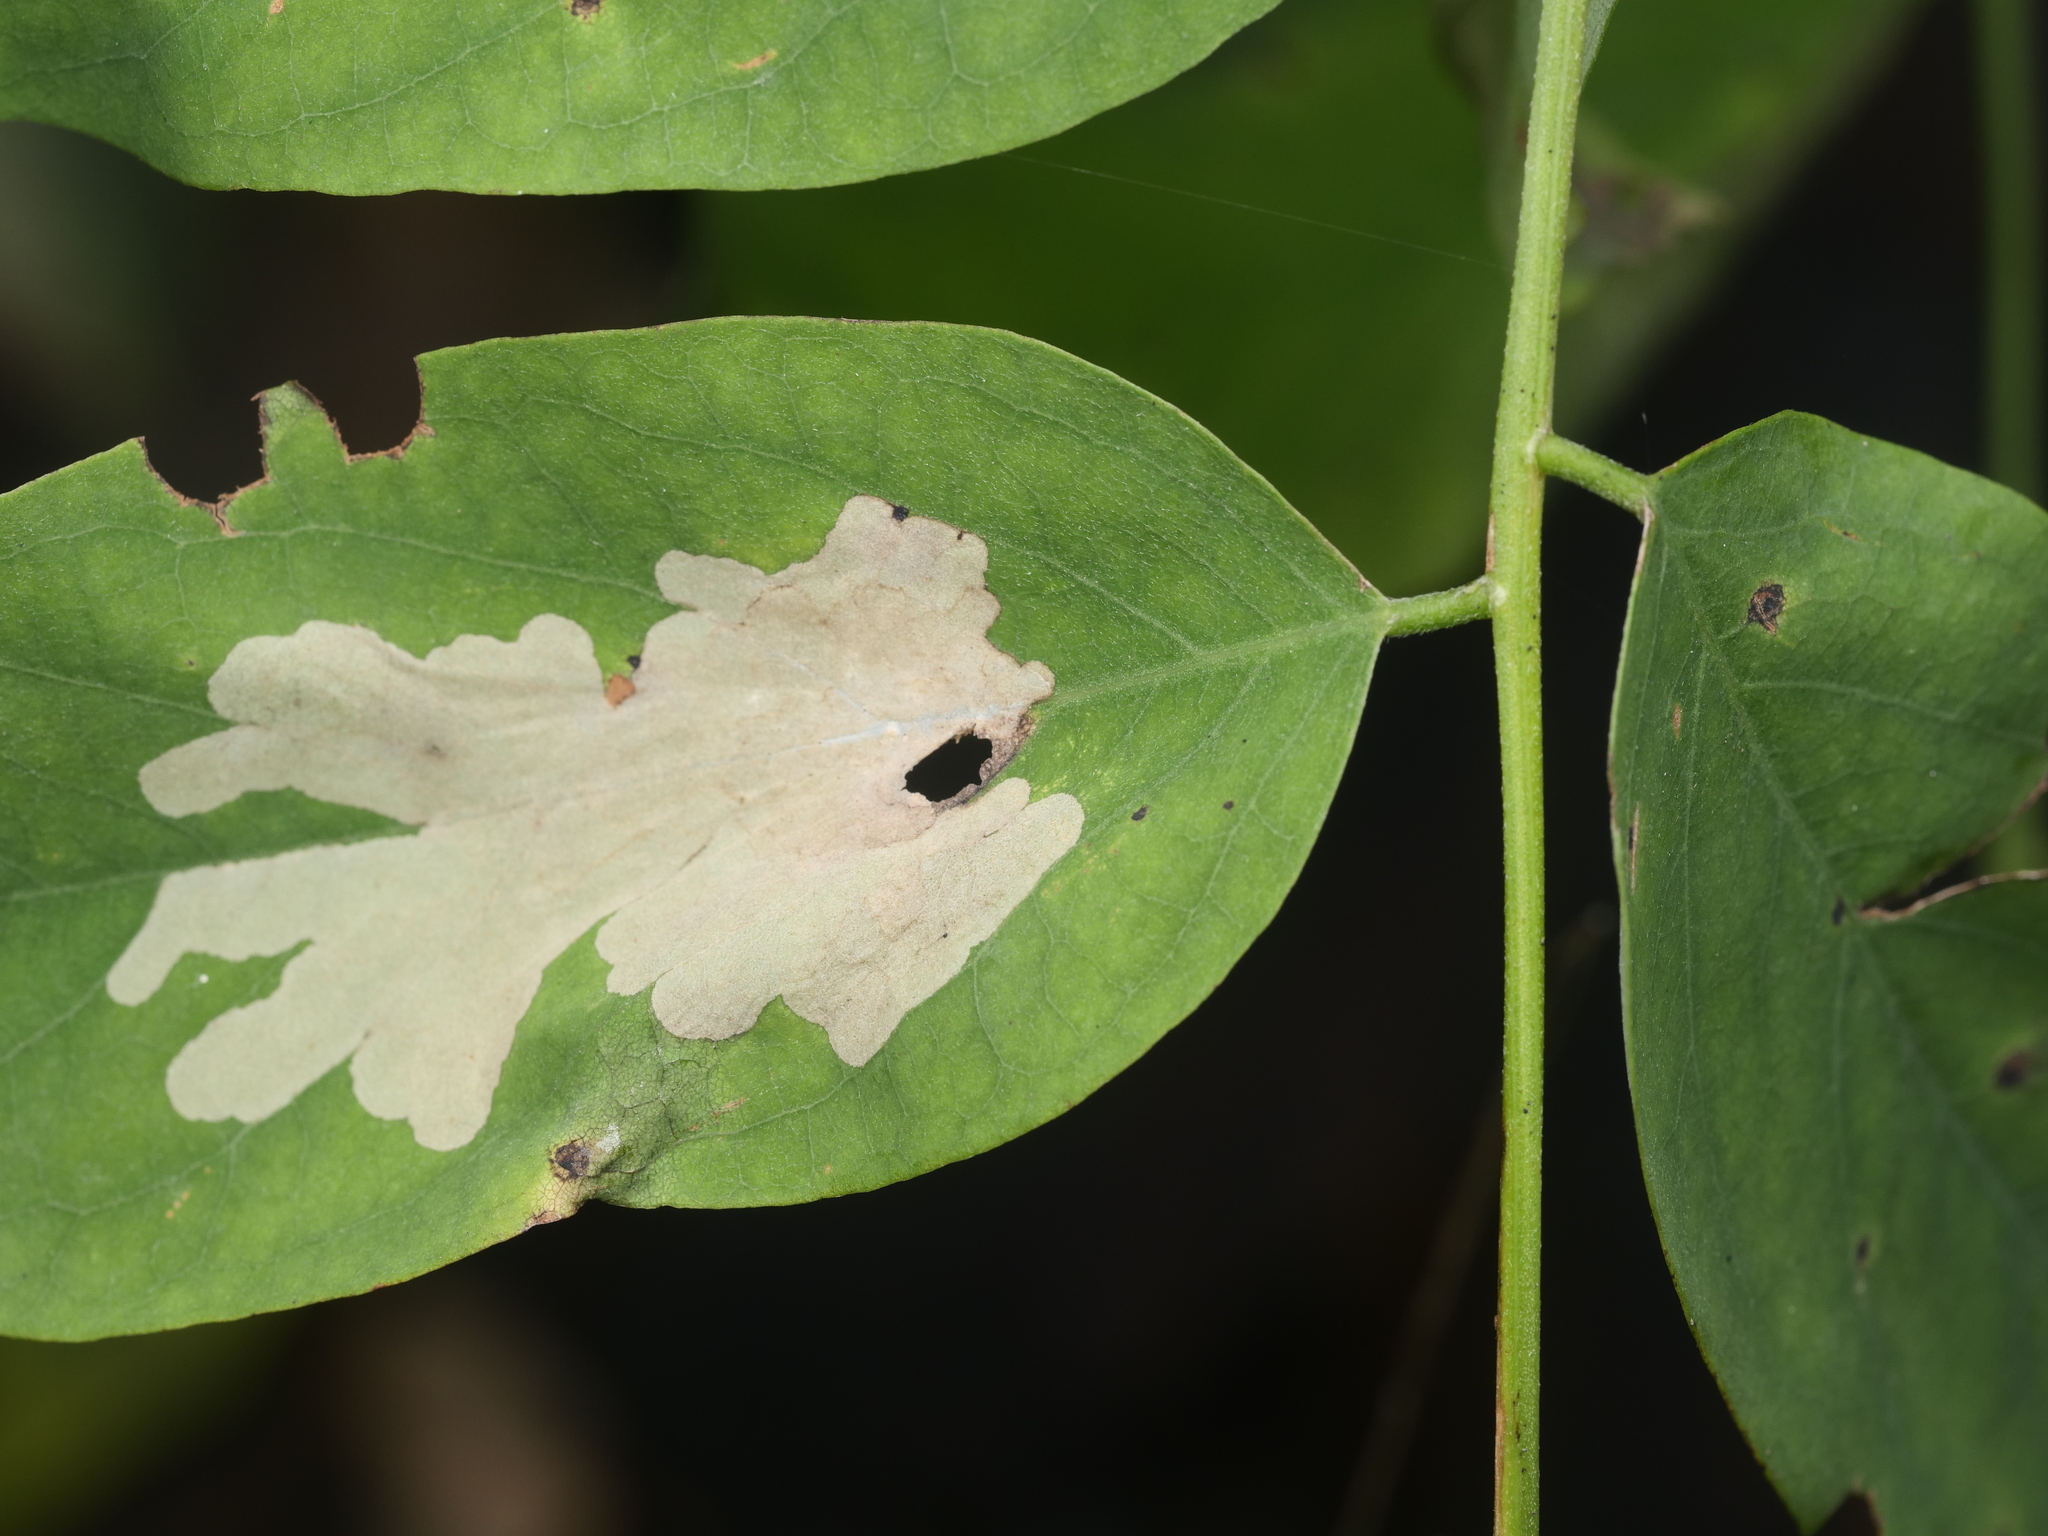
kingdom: Animalia
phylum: Arthropoda
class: Insecta
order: Lepidoptera
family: Gracillariidae
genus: Parectopa
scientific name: Parectopa robiniella
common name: Locust digitate leafminer
